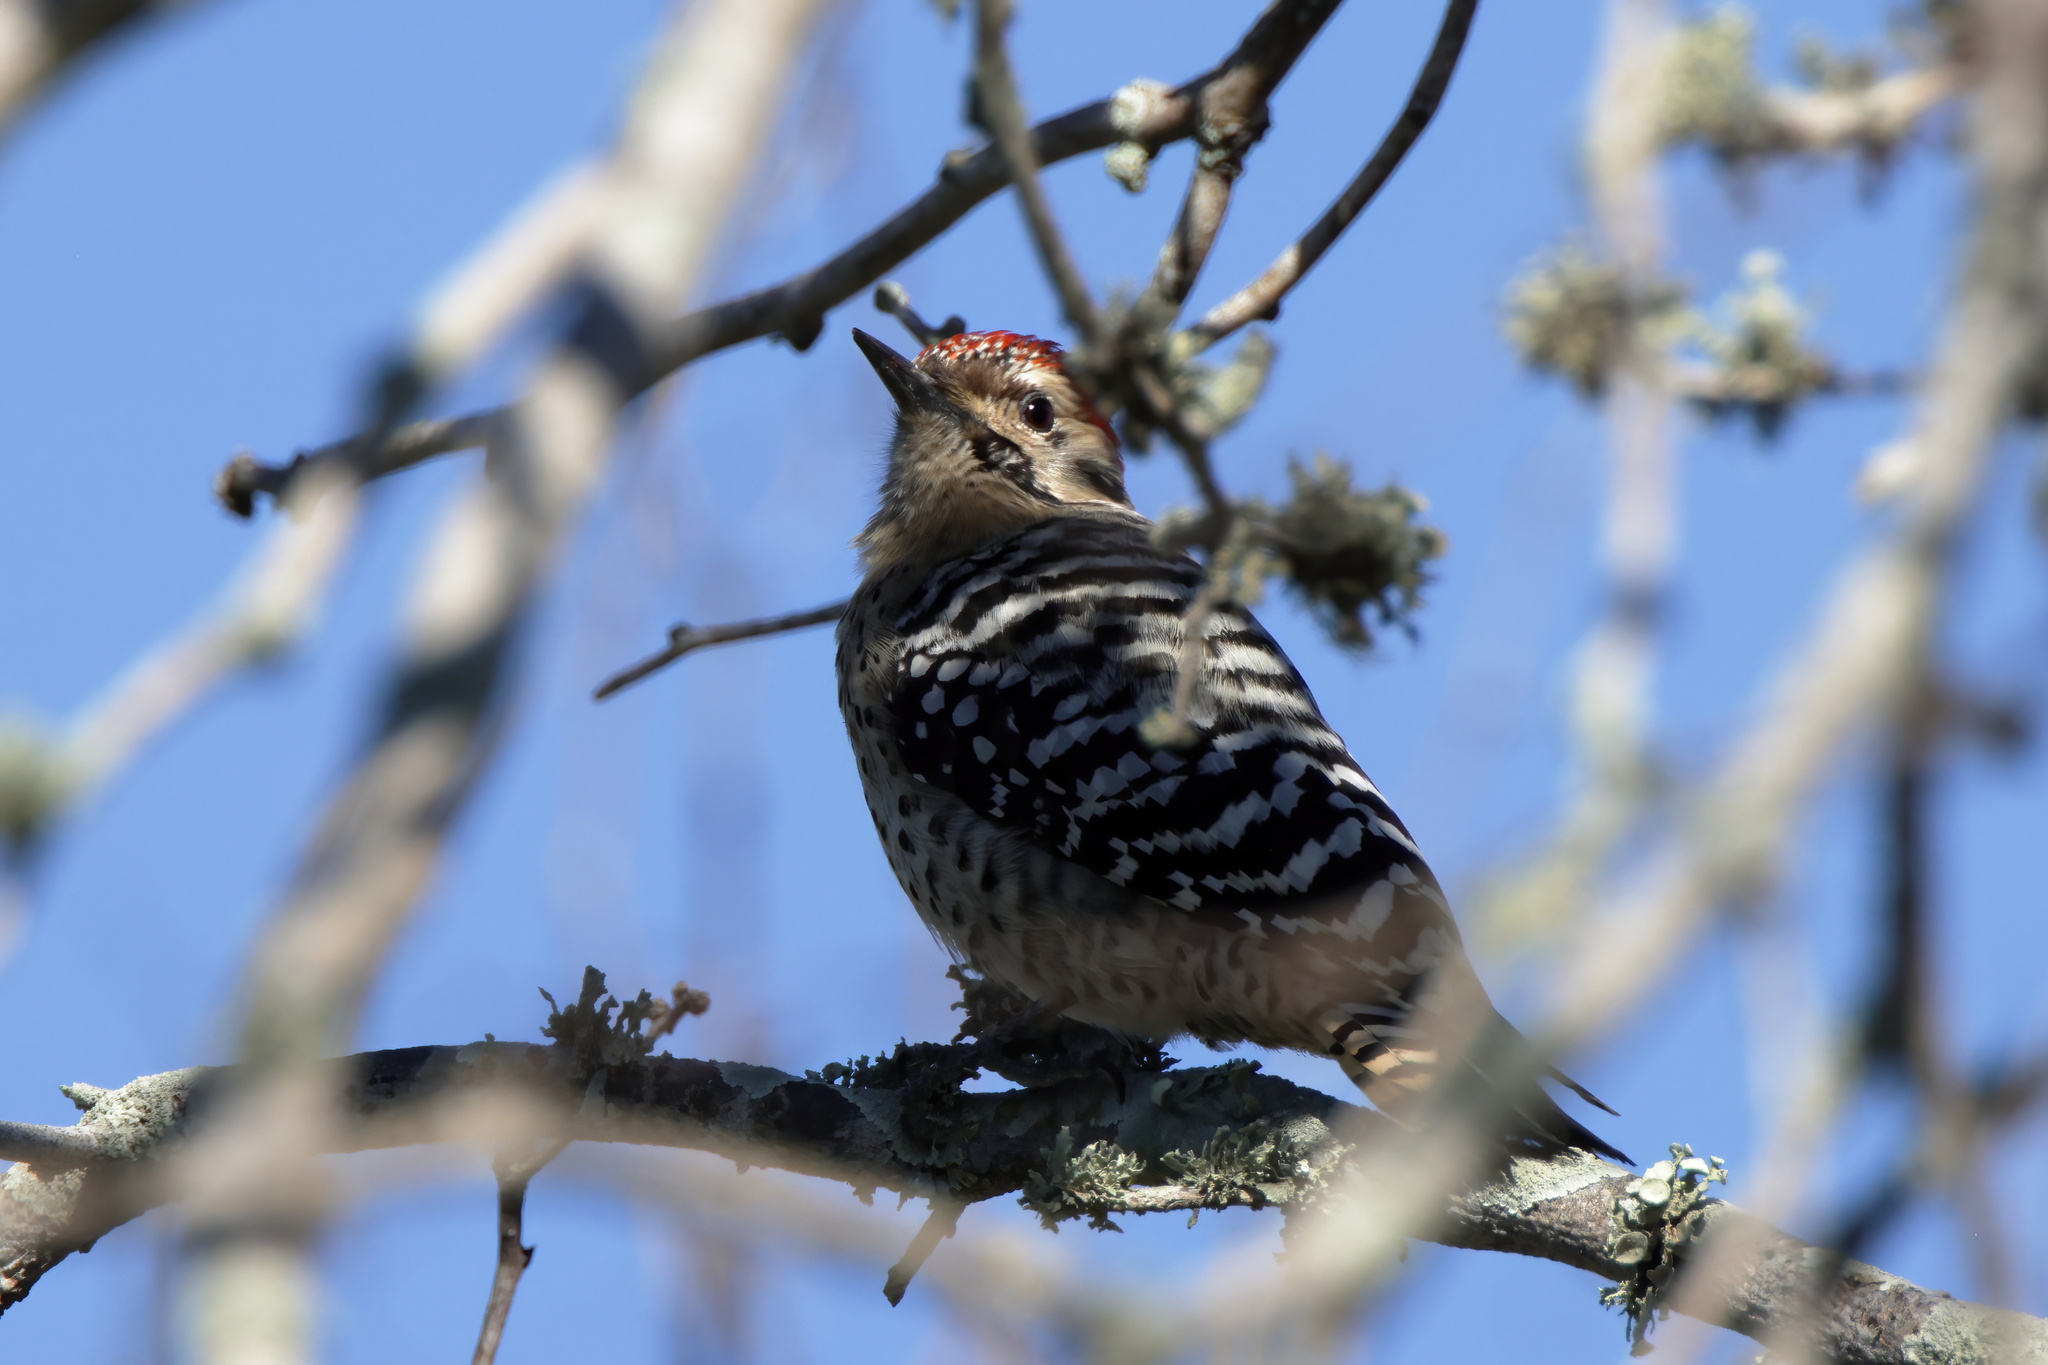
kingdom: Animalia
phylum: Chordata
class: Aves
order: Piciformes
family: Picidae
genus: Dryobates
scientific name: Dryobates scalaris
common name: Ladder-backed woodpecker
